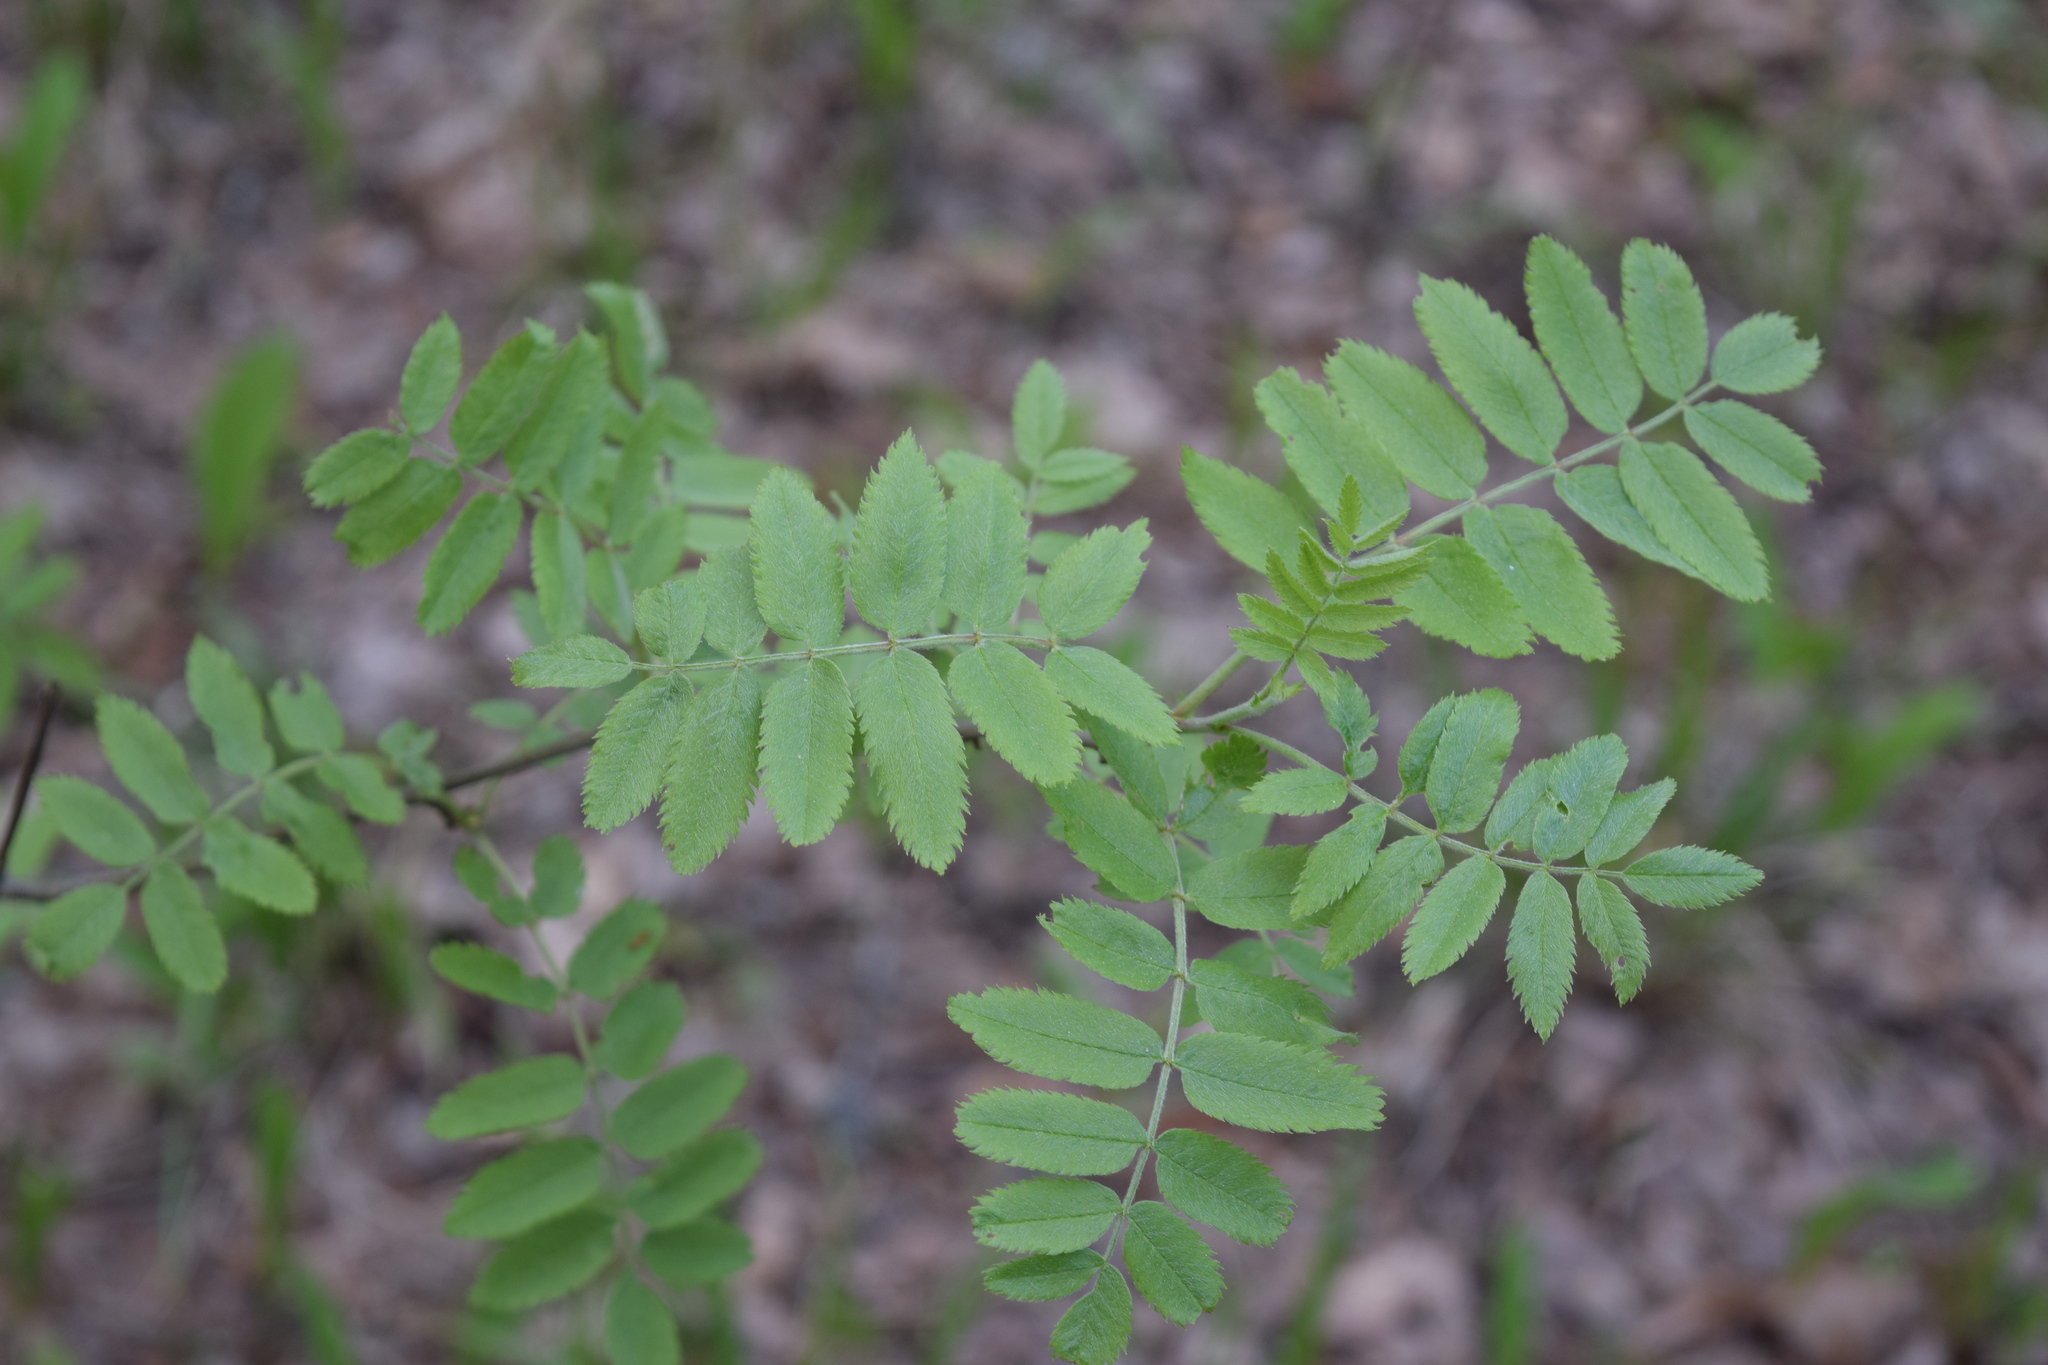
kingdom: Plantae
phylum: Tracheophyta
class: Magnoliopsida
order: Rosales
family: Rosaceae
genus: Sorbus
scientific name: Sorbus aucuparia
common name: Rowan
